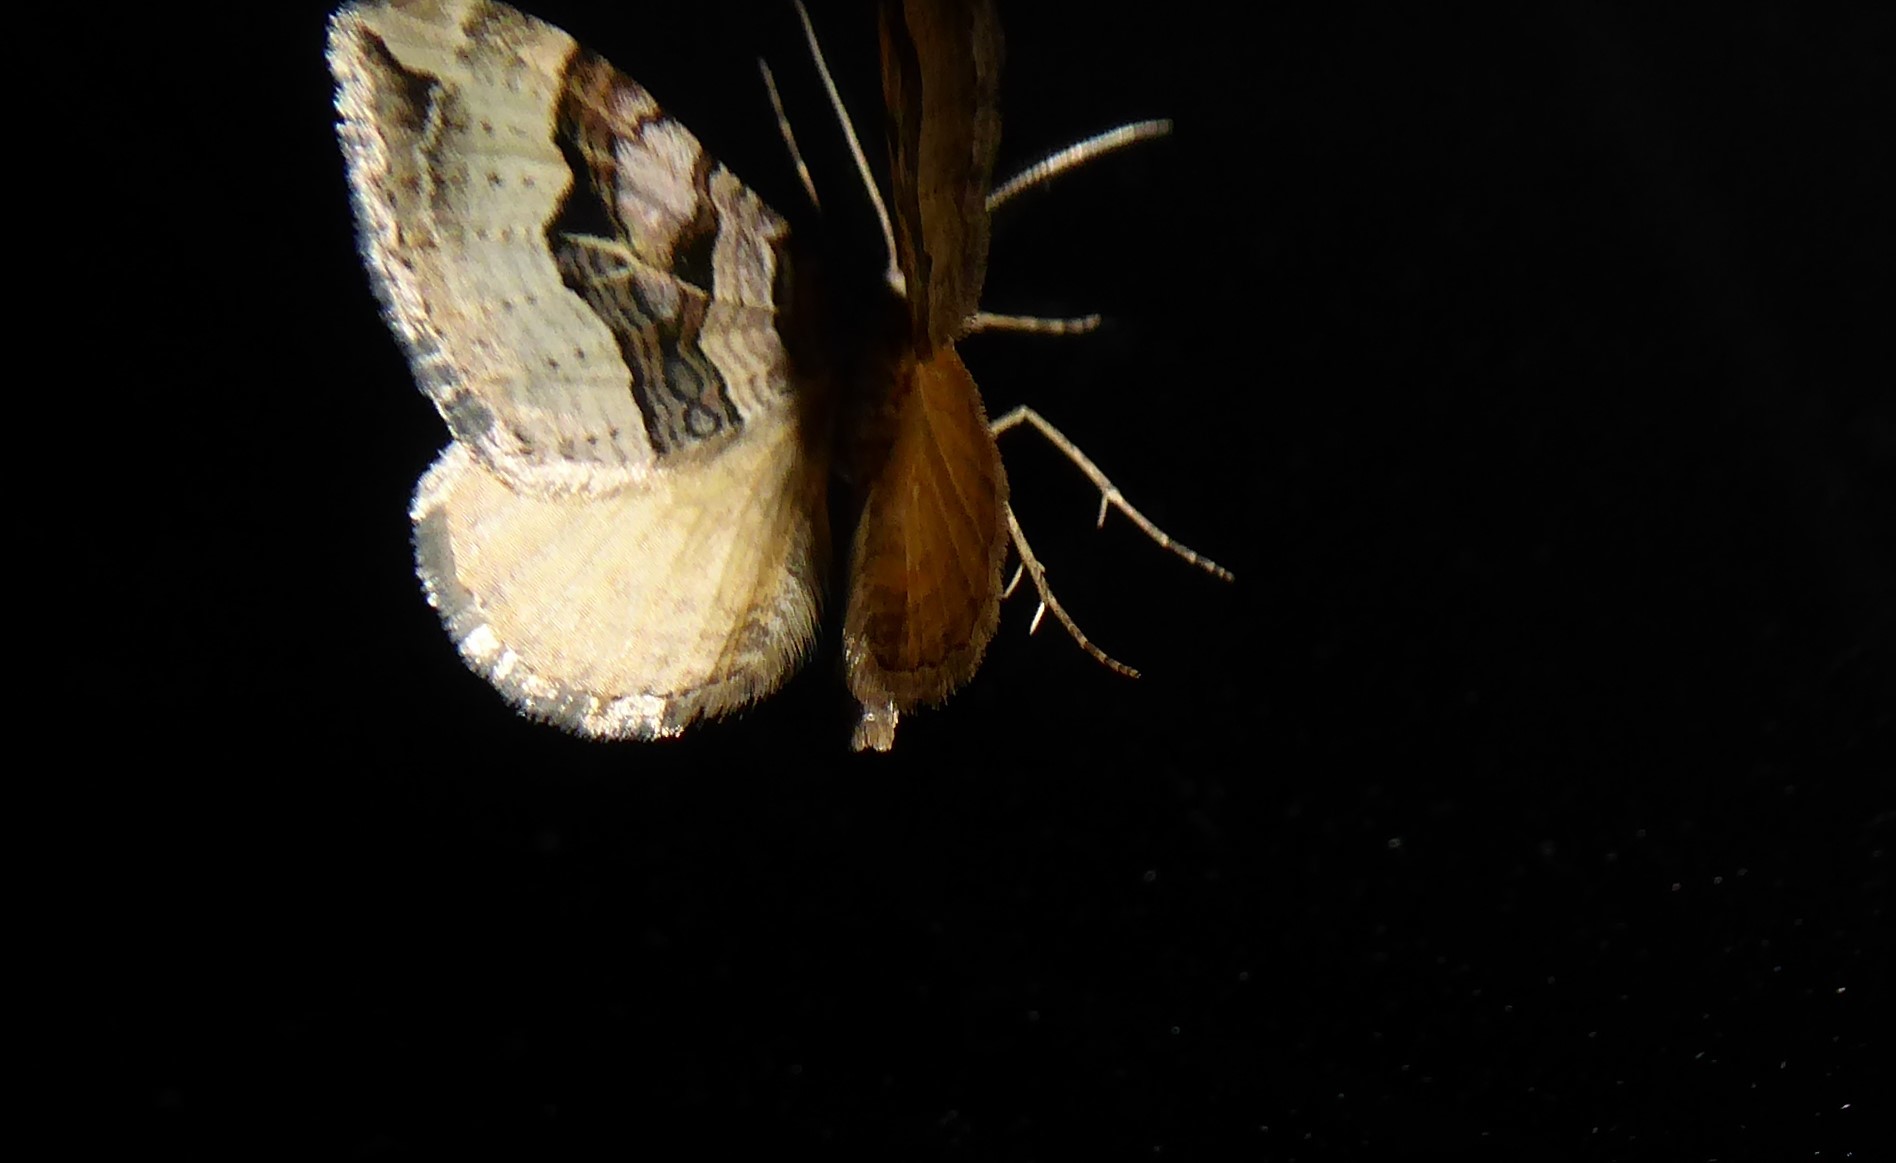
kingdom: Animalia
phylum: Arthropoda
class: Insecta
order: Lepidoptera
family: Geometridae
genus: Xanthorhoe
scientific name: Xanthorhoe semifissata
